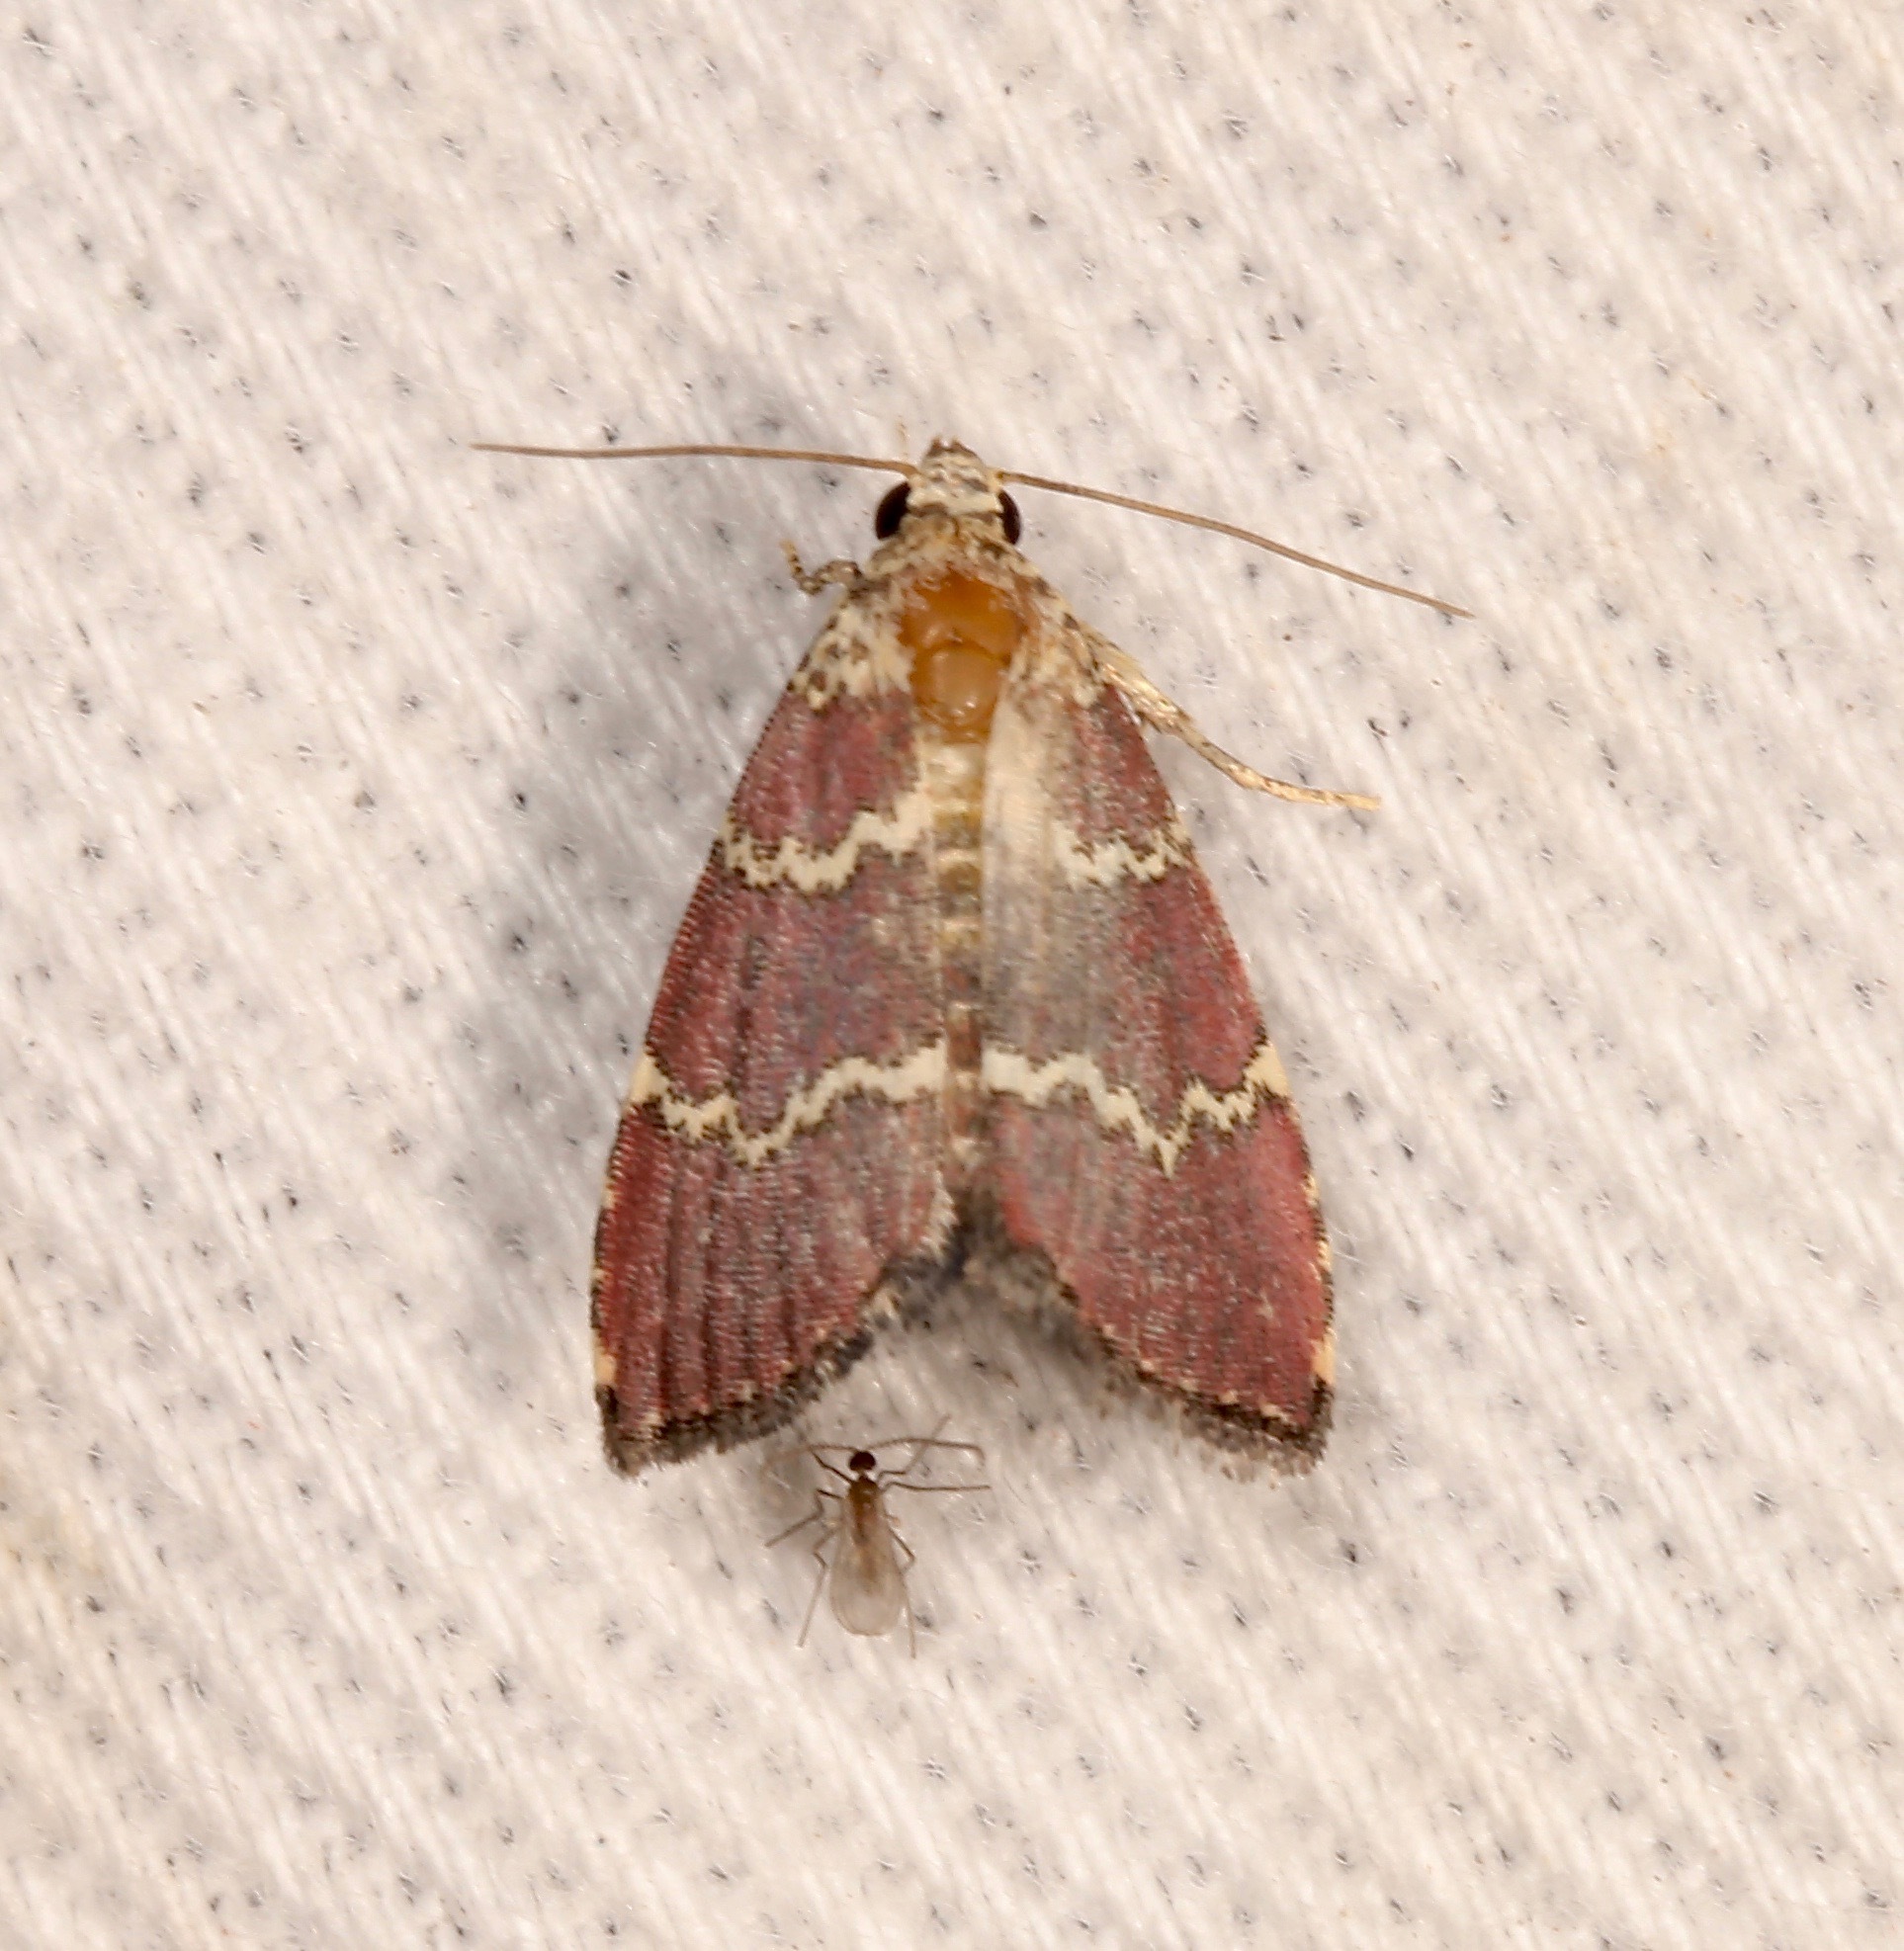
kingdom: Animalia
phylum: Arthropoda
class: Insecta
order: Lepidoptera
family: Noctuidae
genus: Phoenicophanta
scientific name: Phoenicophanta modestula
